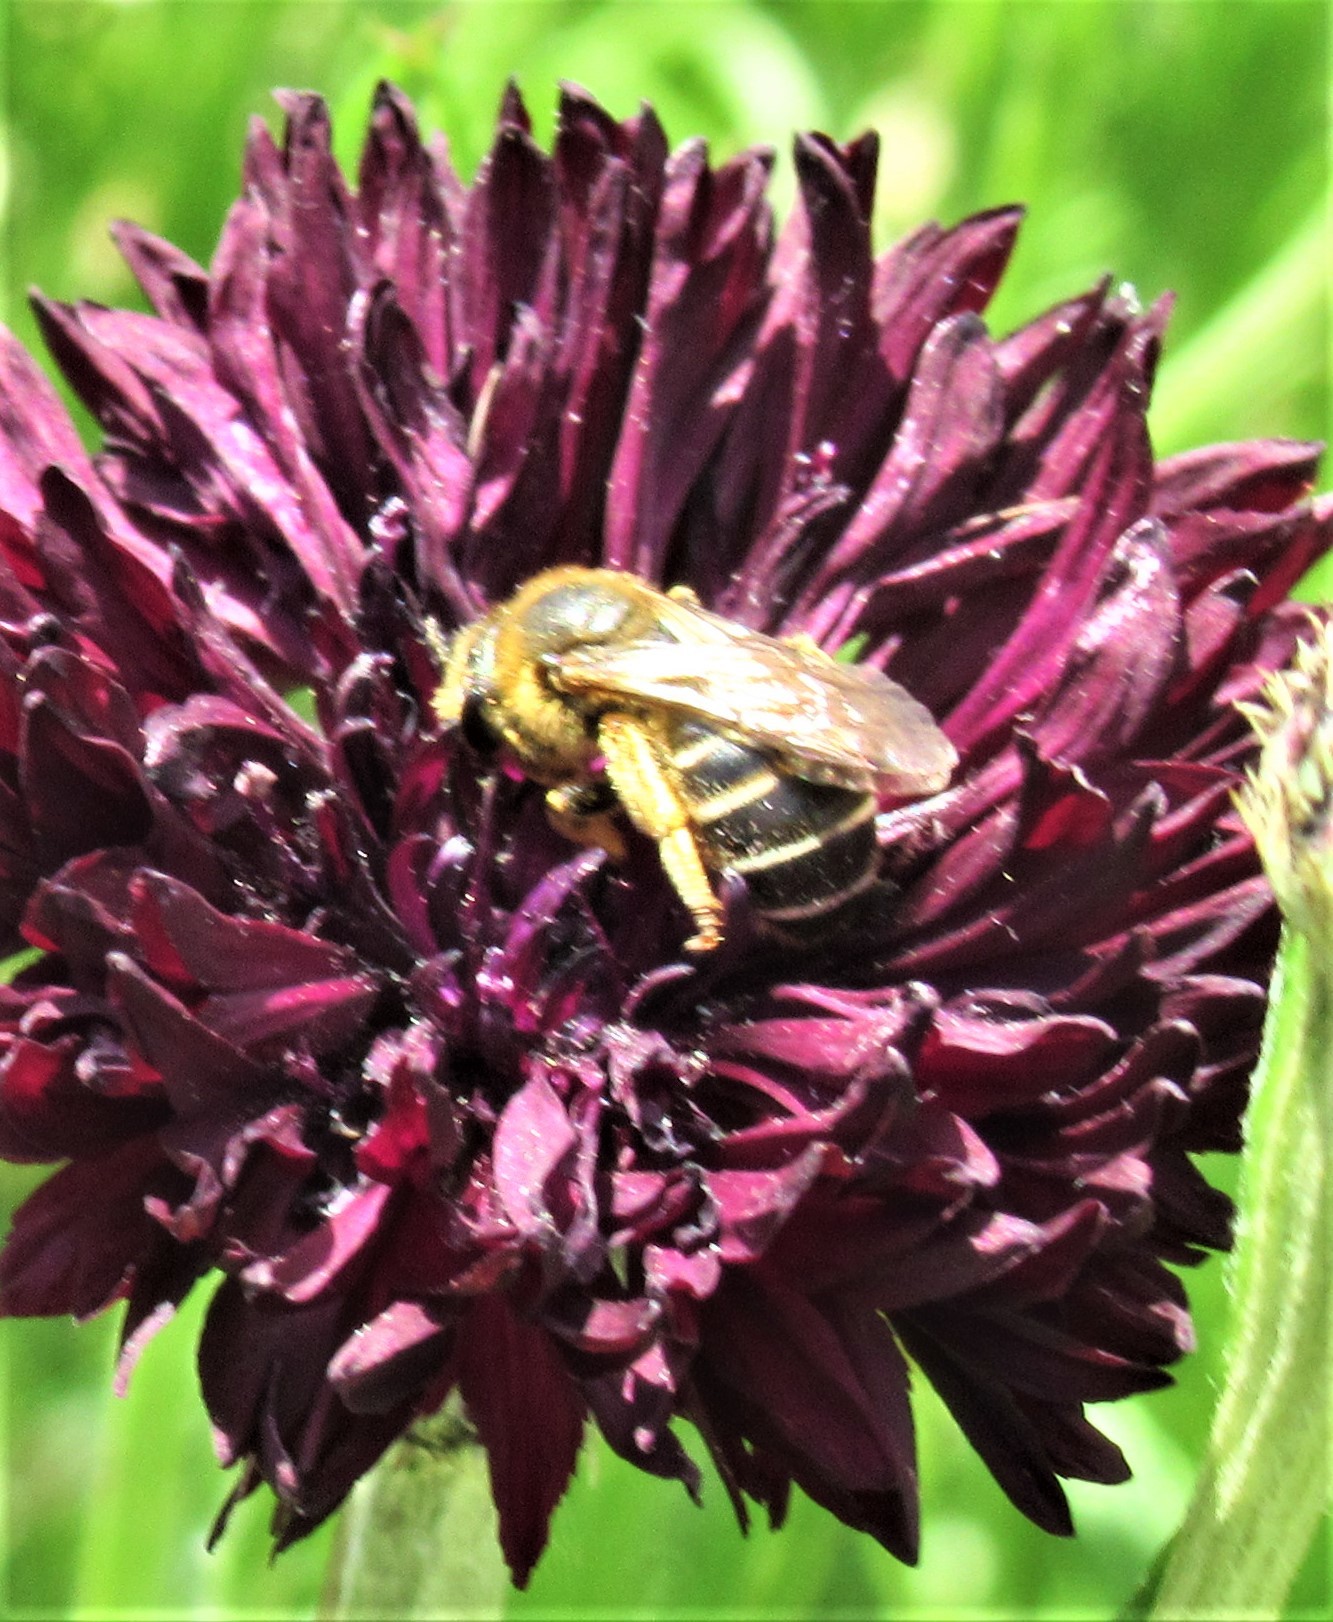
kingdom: Animalia
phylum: Arthropoda
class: Insecta
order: Hymenoptera
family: Halictidae
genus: Halictus
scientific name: Halictus rubicundus
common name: Orange-legged furrow bee
